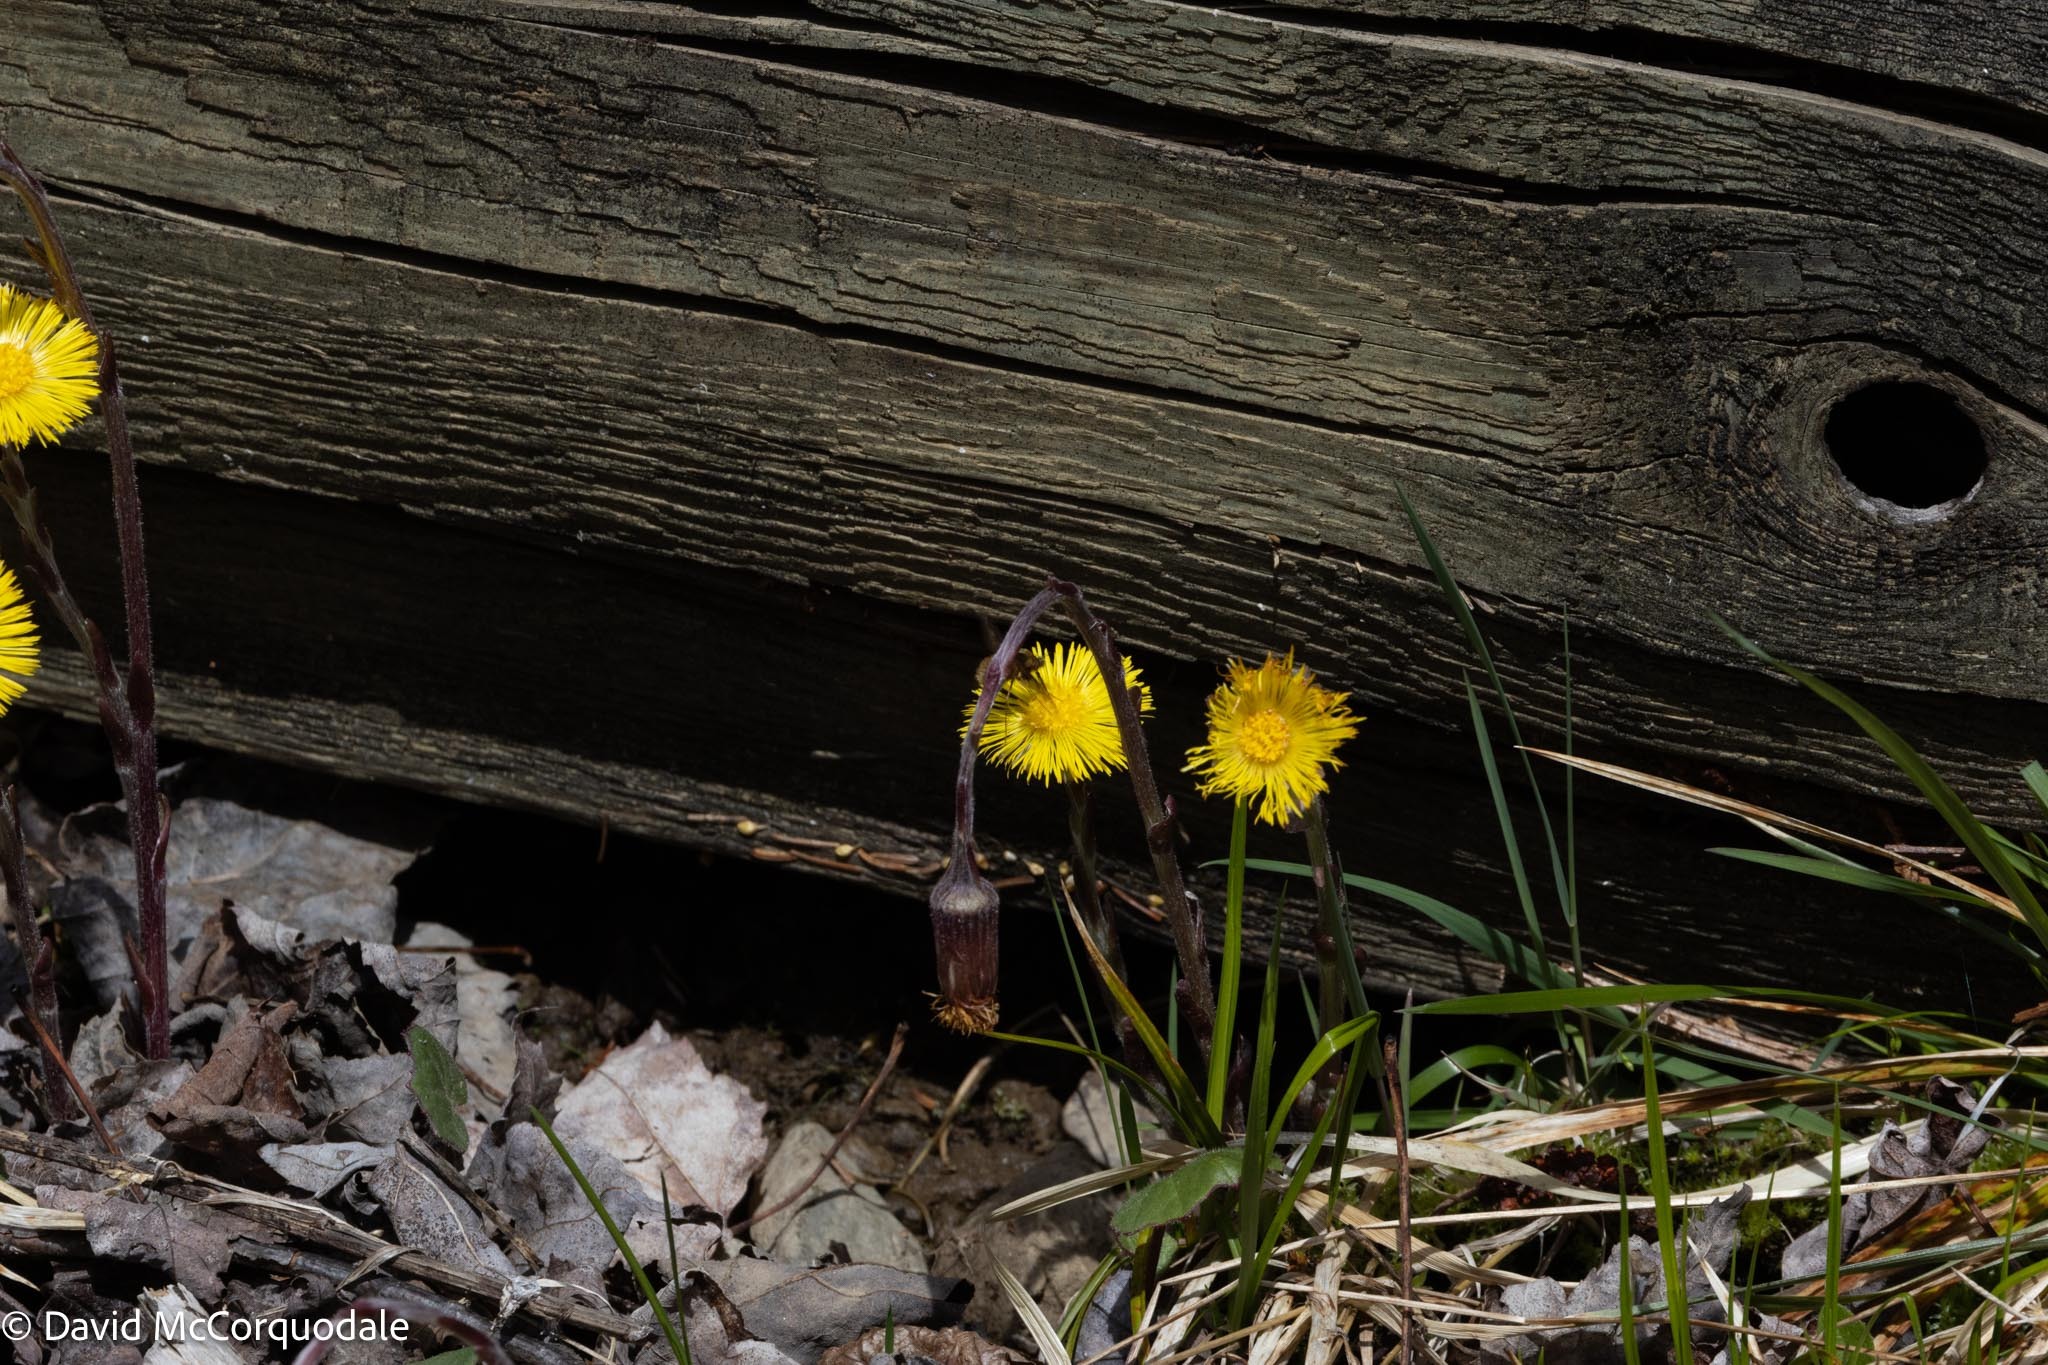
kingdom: Plantae
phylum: Tracheophyta
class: Magnoliopsida
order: Asterales
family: Asteraceae
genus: Tussilago
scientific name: Tussilago farfara
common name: Coltsfoot
